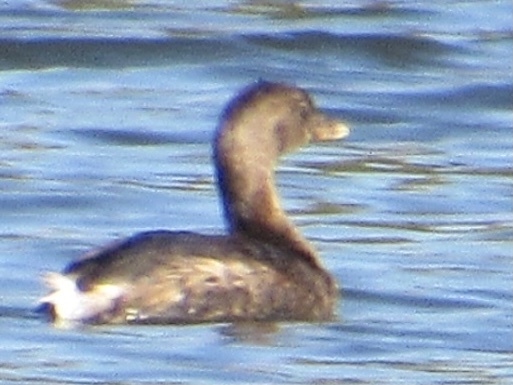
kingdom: Animalia
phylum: Chordata
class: Aves
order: Podicipediformes
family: Podicipedidae
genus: Podilymbus
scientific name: Podilymbus podiceps
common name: Pied-billed grebe
